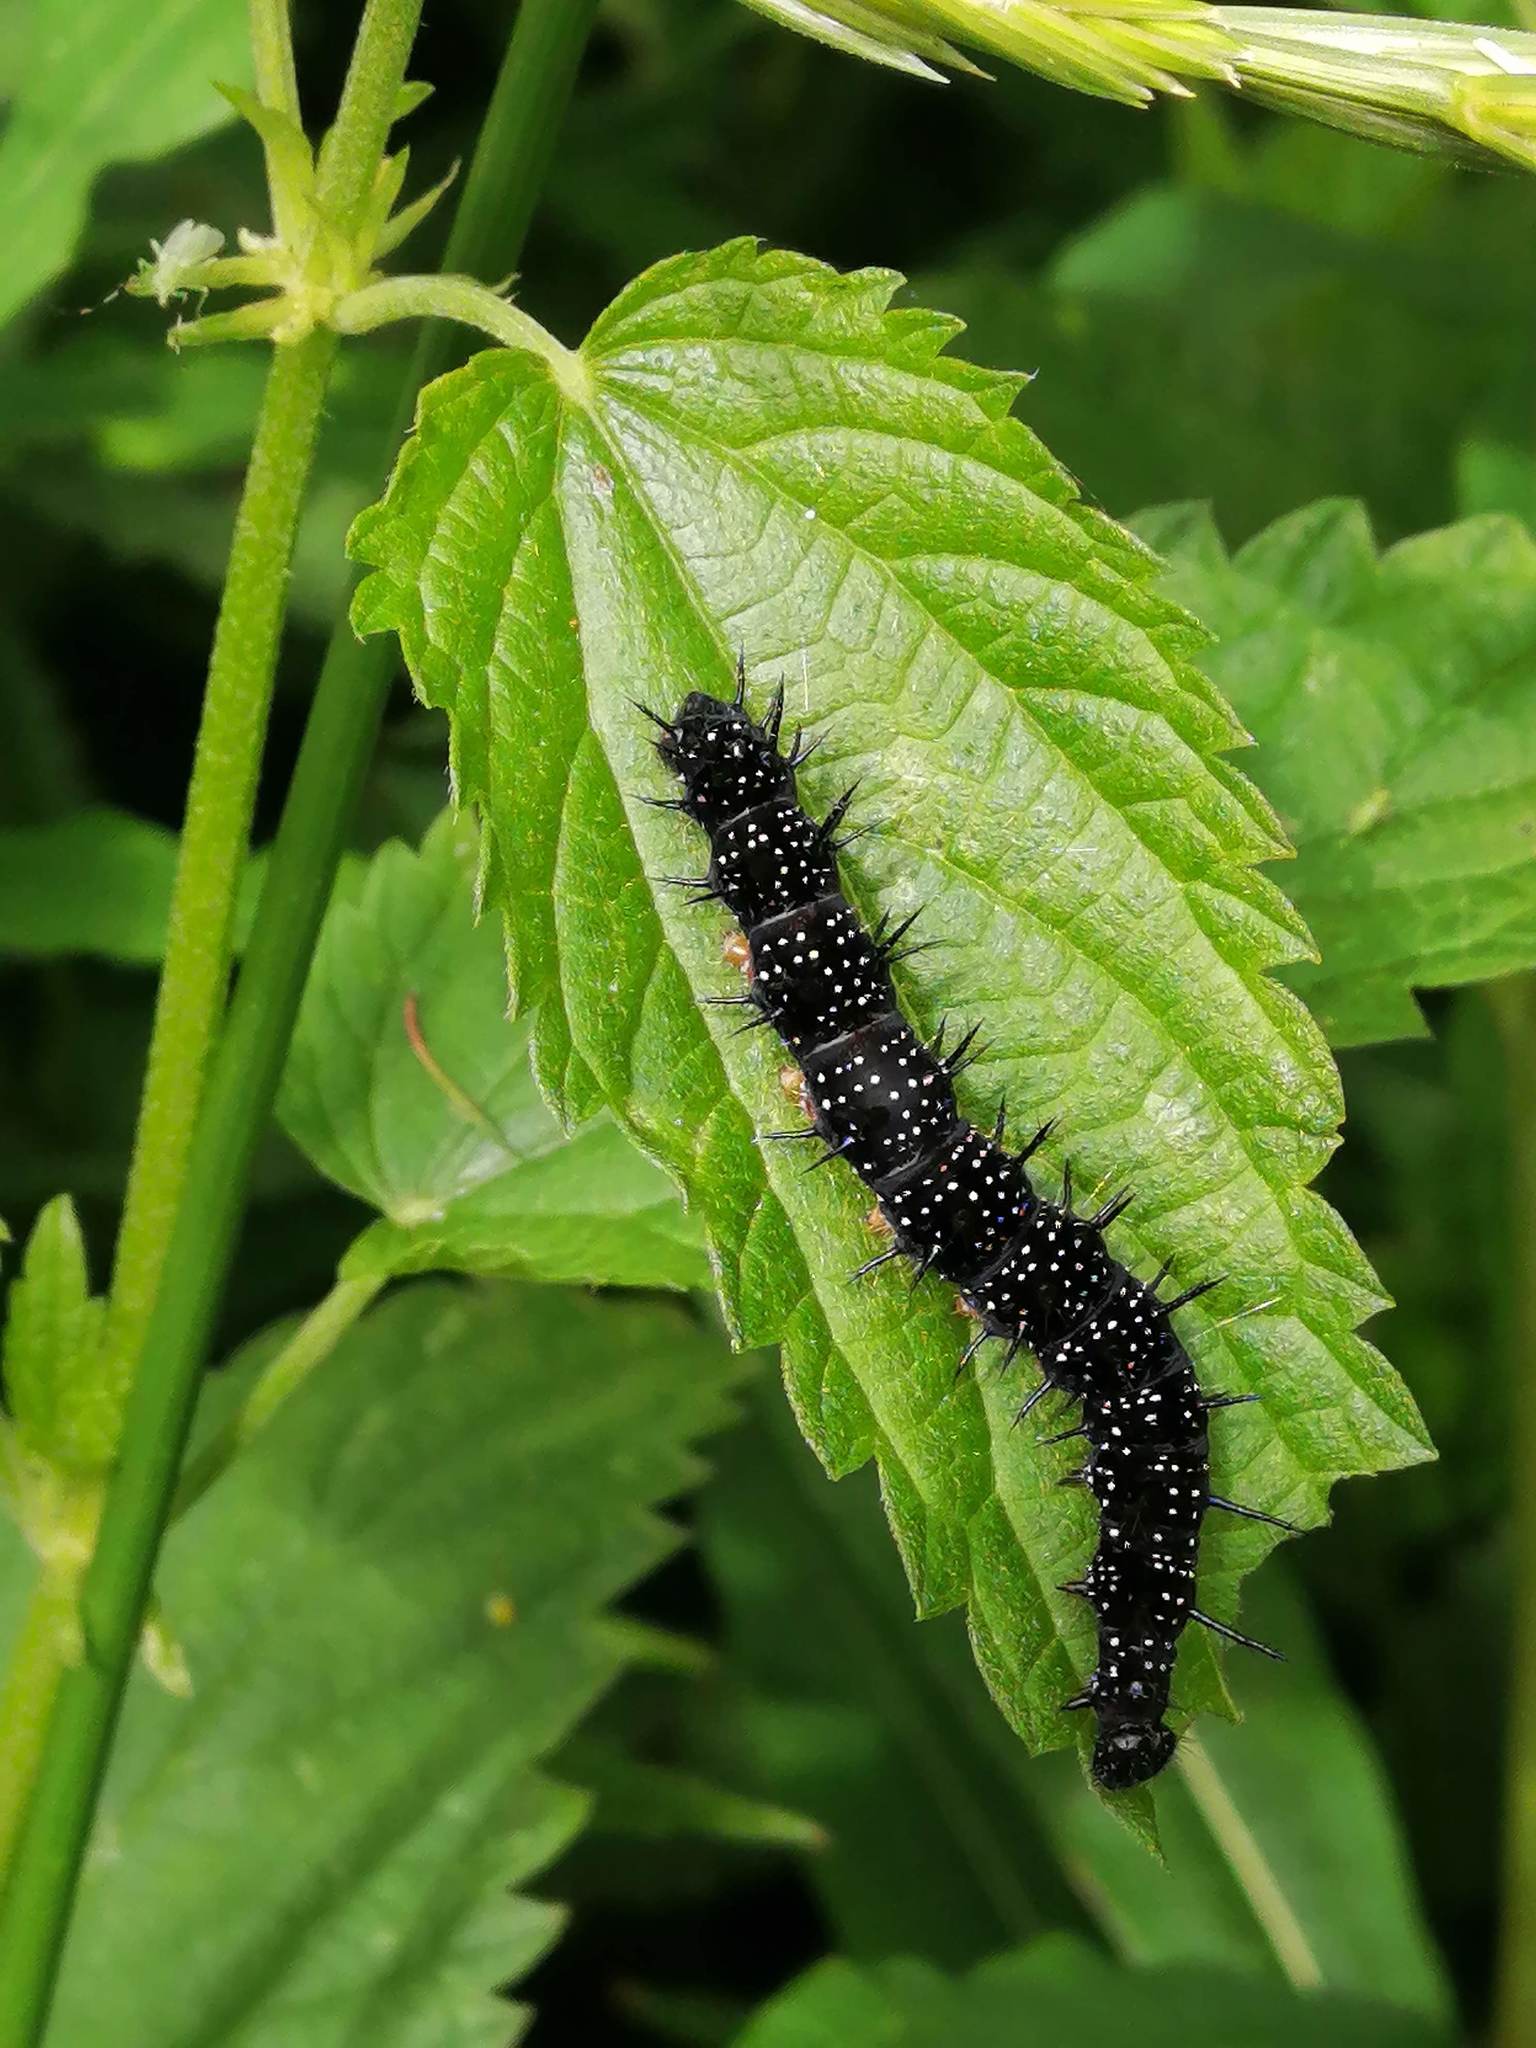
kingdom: Animalia
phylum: Arthropoda
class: Insecta
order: Lepidoptera
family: Nymphalidae
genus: Aglais
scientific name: Aglais io
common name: Peacock
